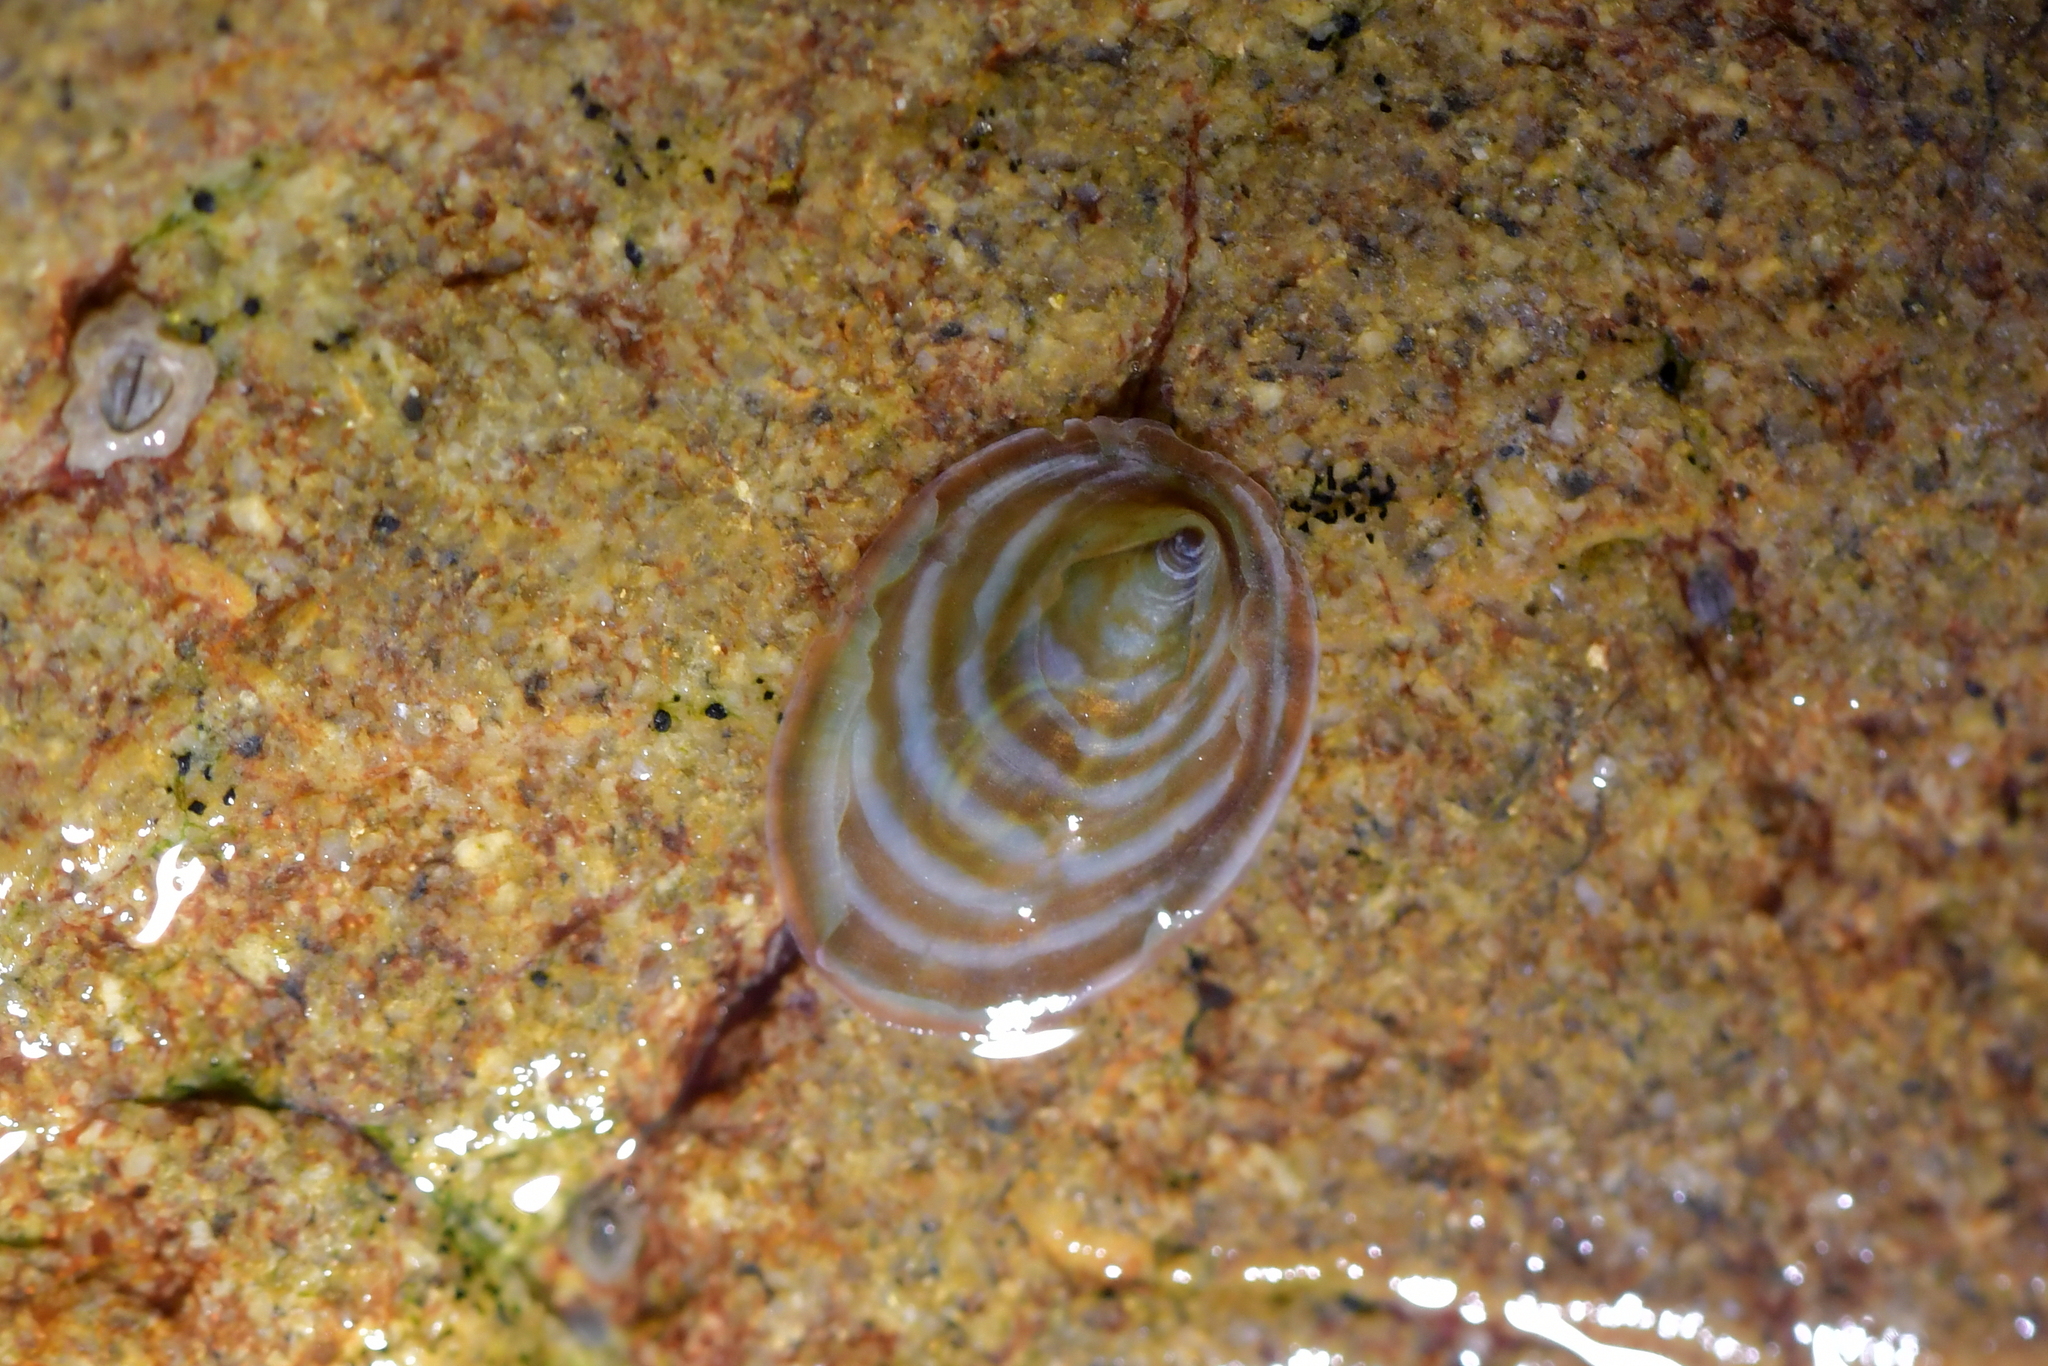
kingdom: Animalia
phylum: Mollusca
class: Gastropoda
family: Lottiidae
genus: Atalacmea
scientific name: Atalacmea fragilis
